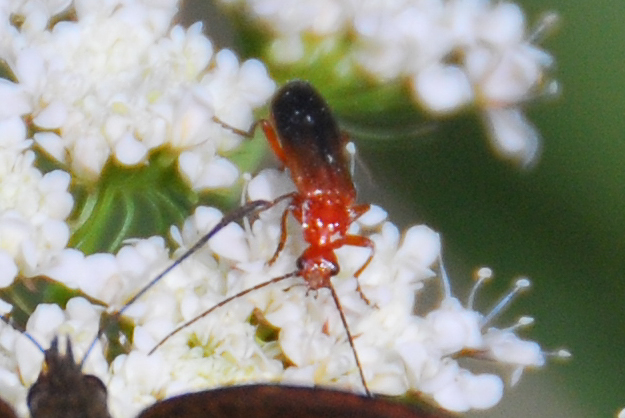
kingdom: Animalia
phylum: Arthropoda
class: Insecta
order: Coleoptera
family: Cantharidae
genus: Rhagonycha
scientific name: Rhagonycha fulva
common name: Common red soldier beetle
